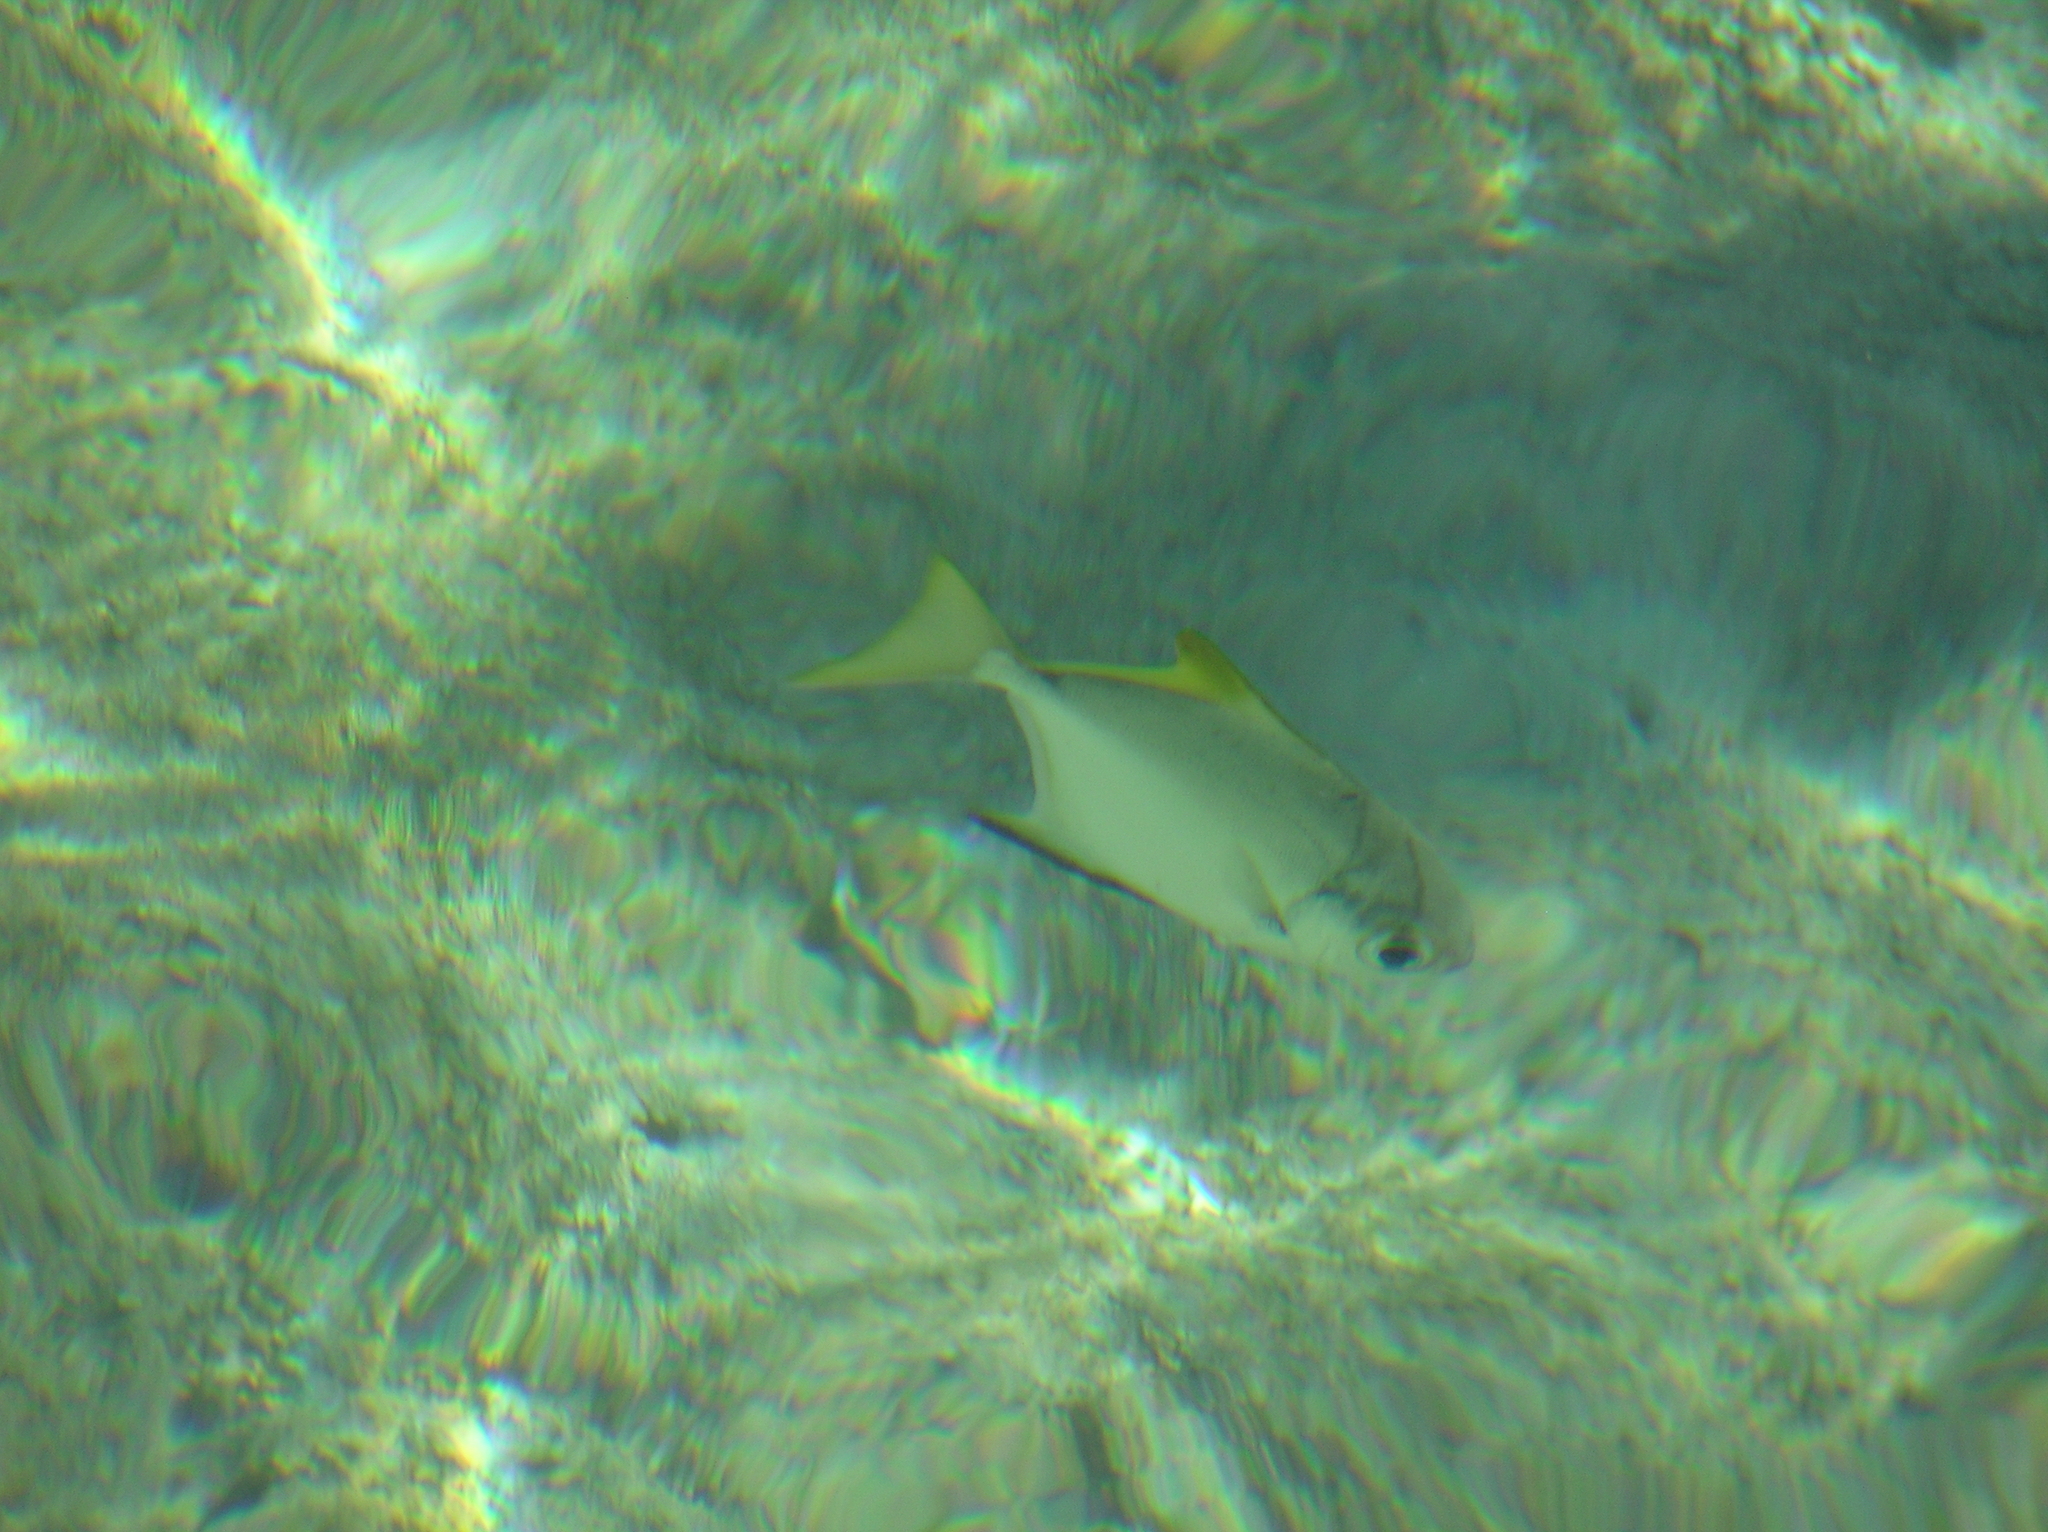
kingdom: Animalia
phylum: Chordata
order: Perciformes
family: Monodactylidae
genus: Monodactylus
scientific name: Monodactylus argenteus
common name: Silver moony
